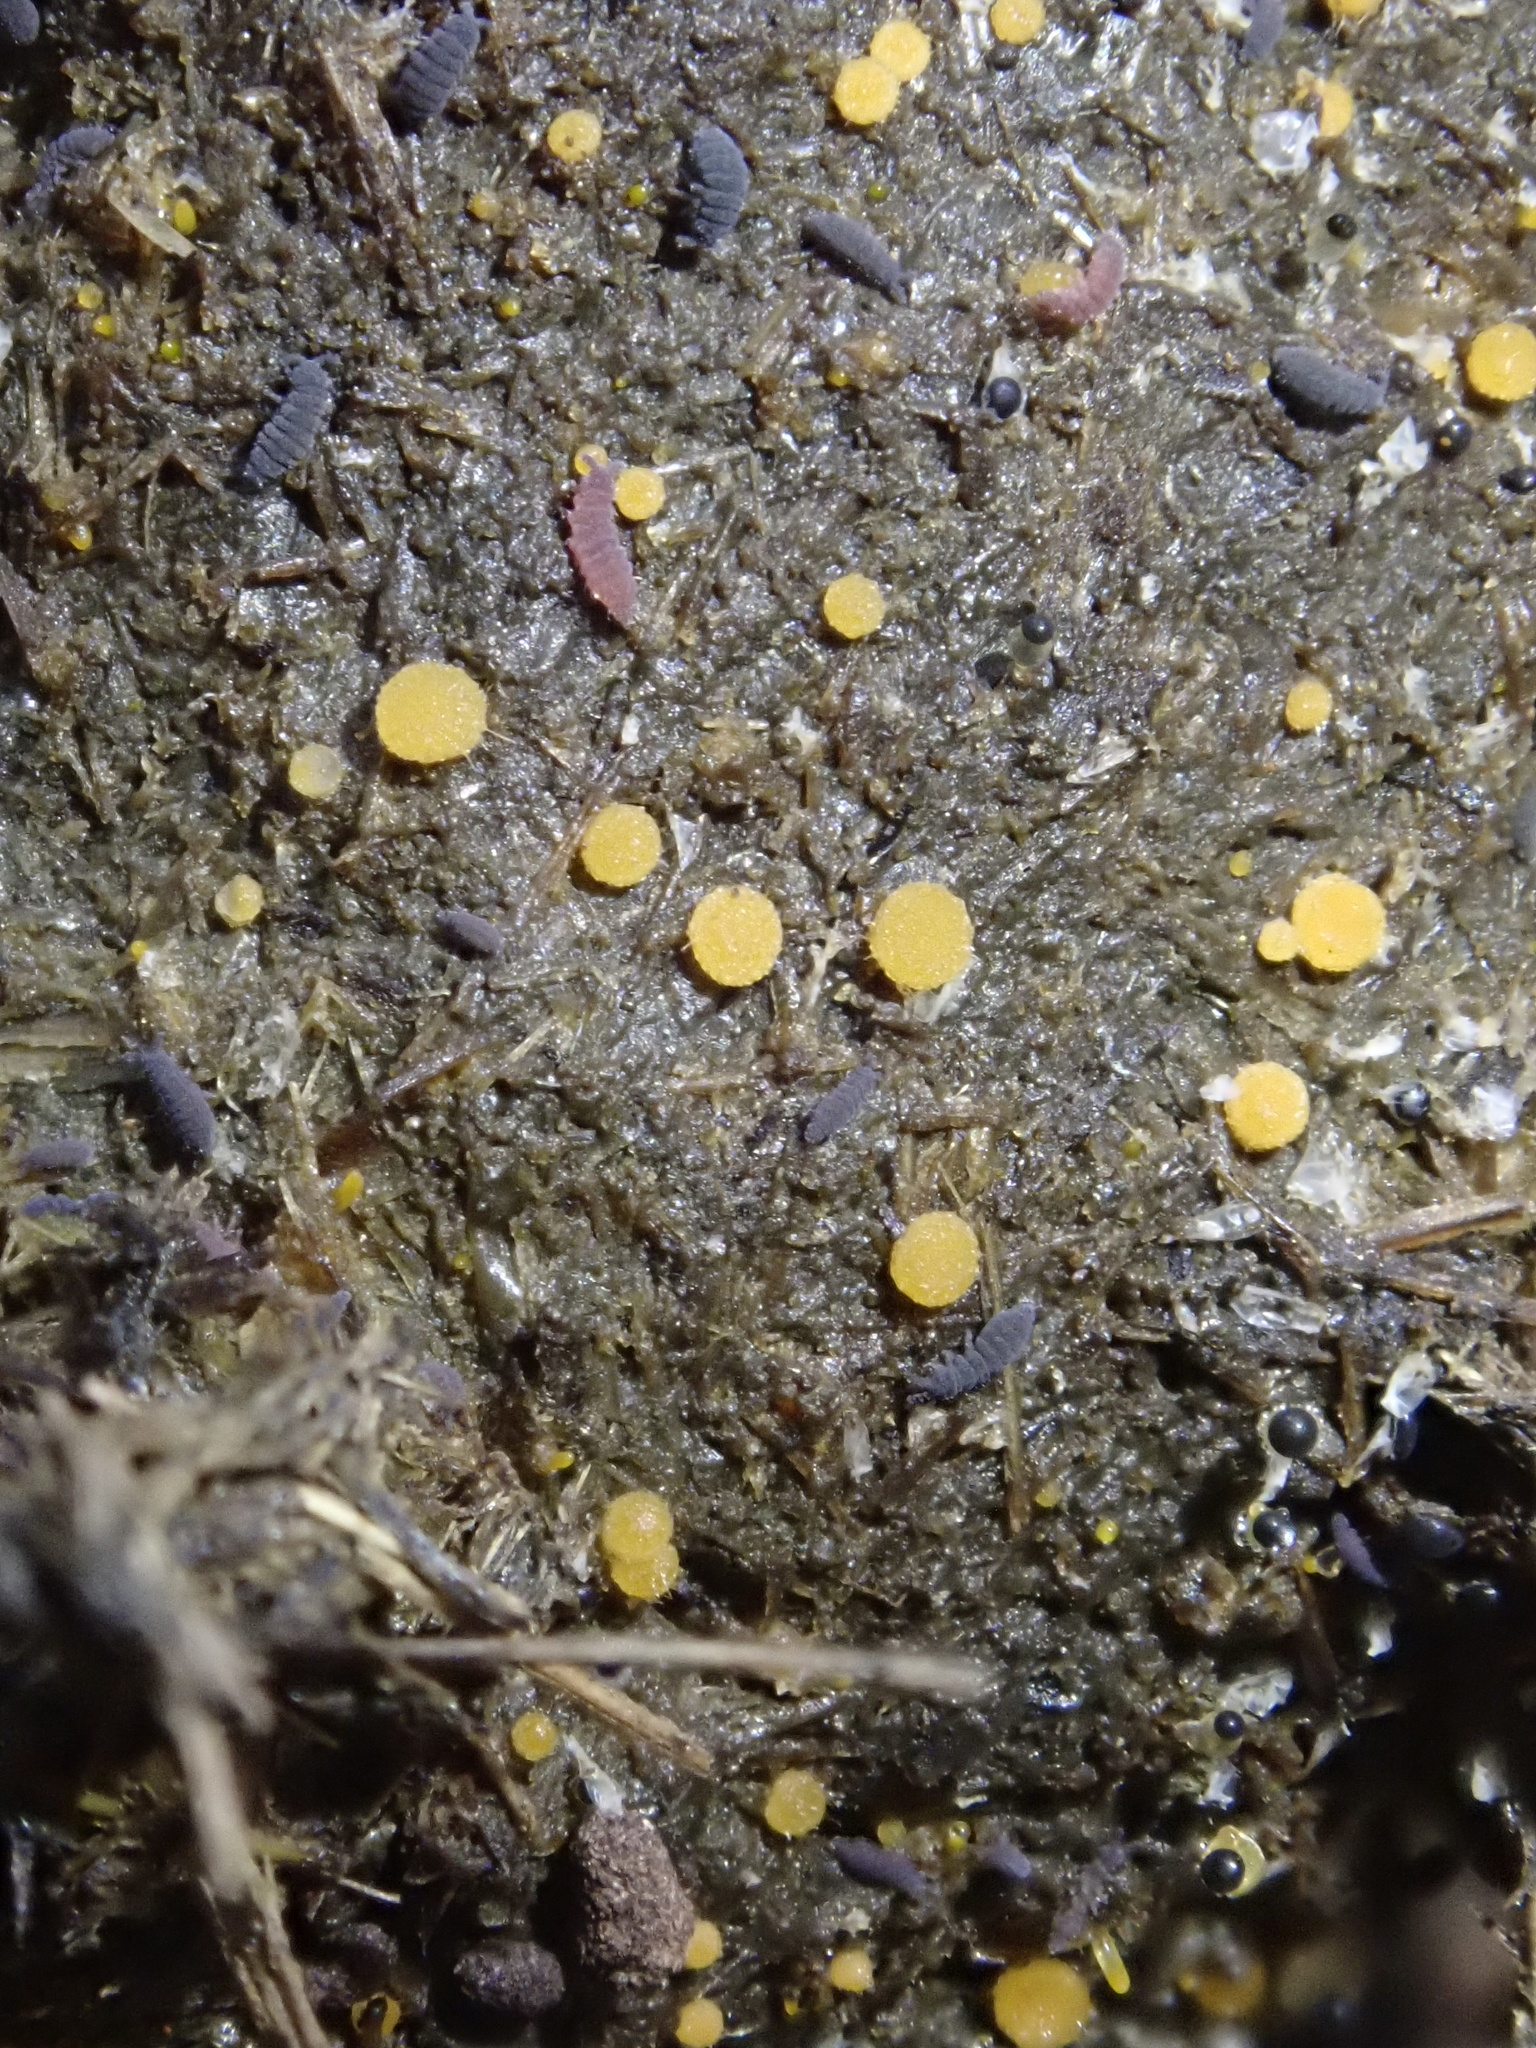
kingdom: Fungi
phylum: Ascomycota
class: Pezizomycetes
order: Pezizales
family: Pyronemataceae
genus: Cheilymenia
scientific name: Cheilymenia raripila
